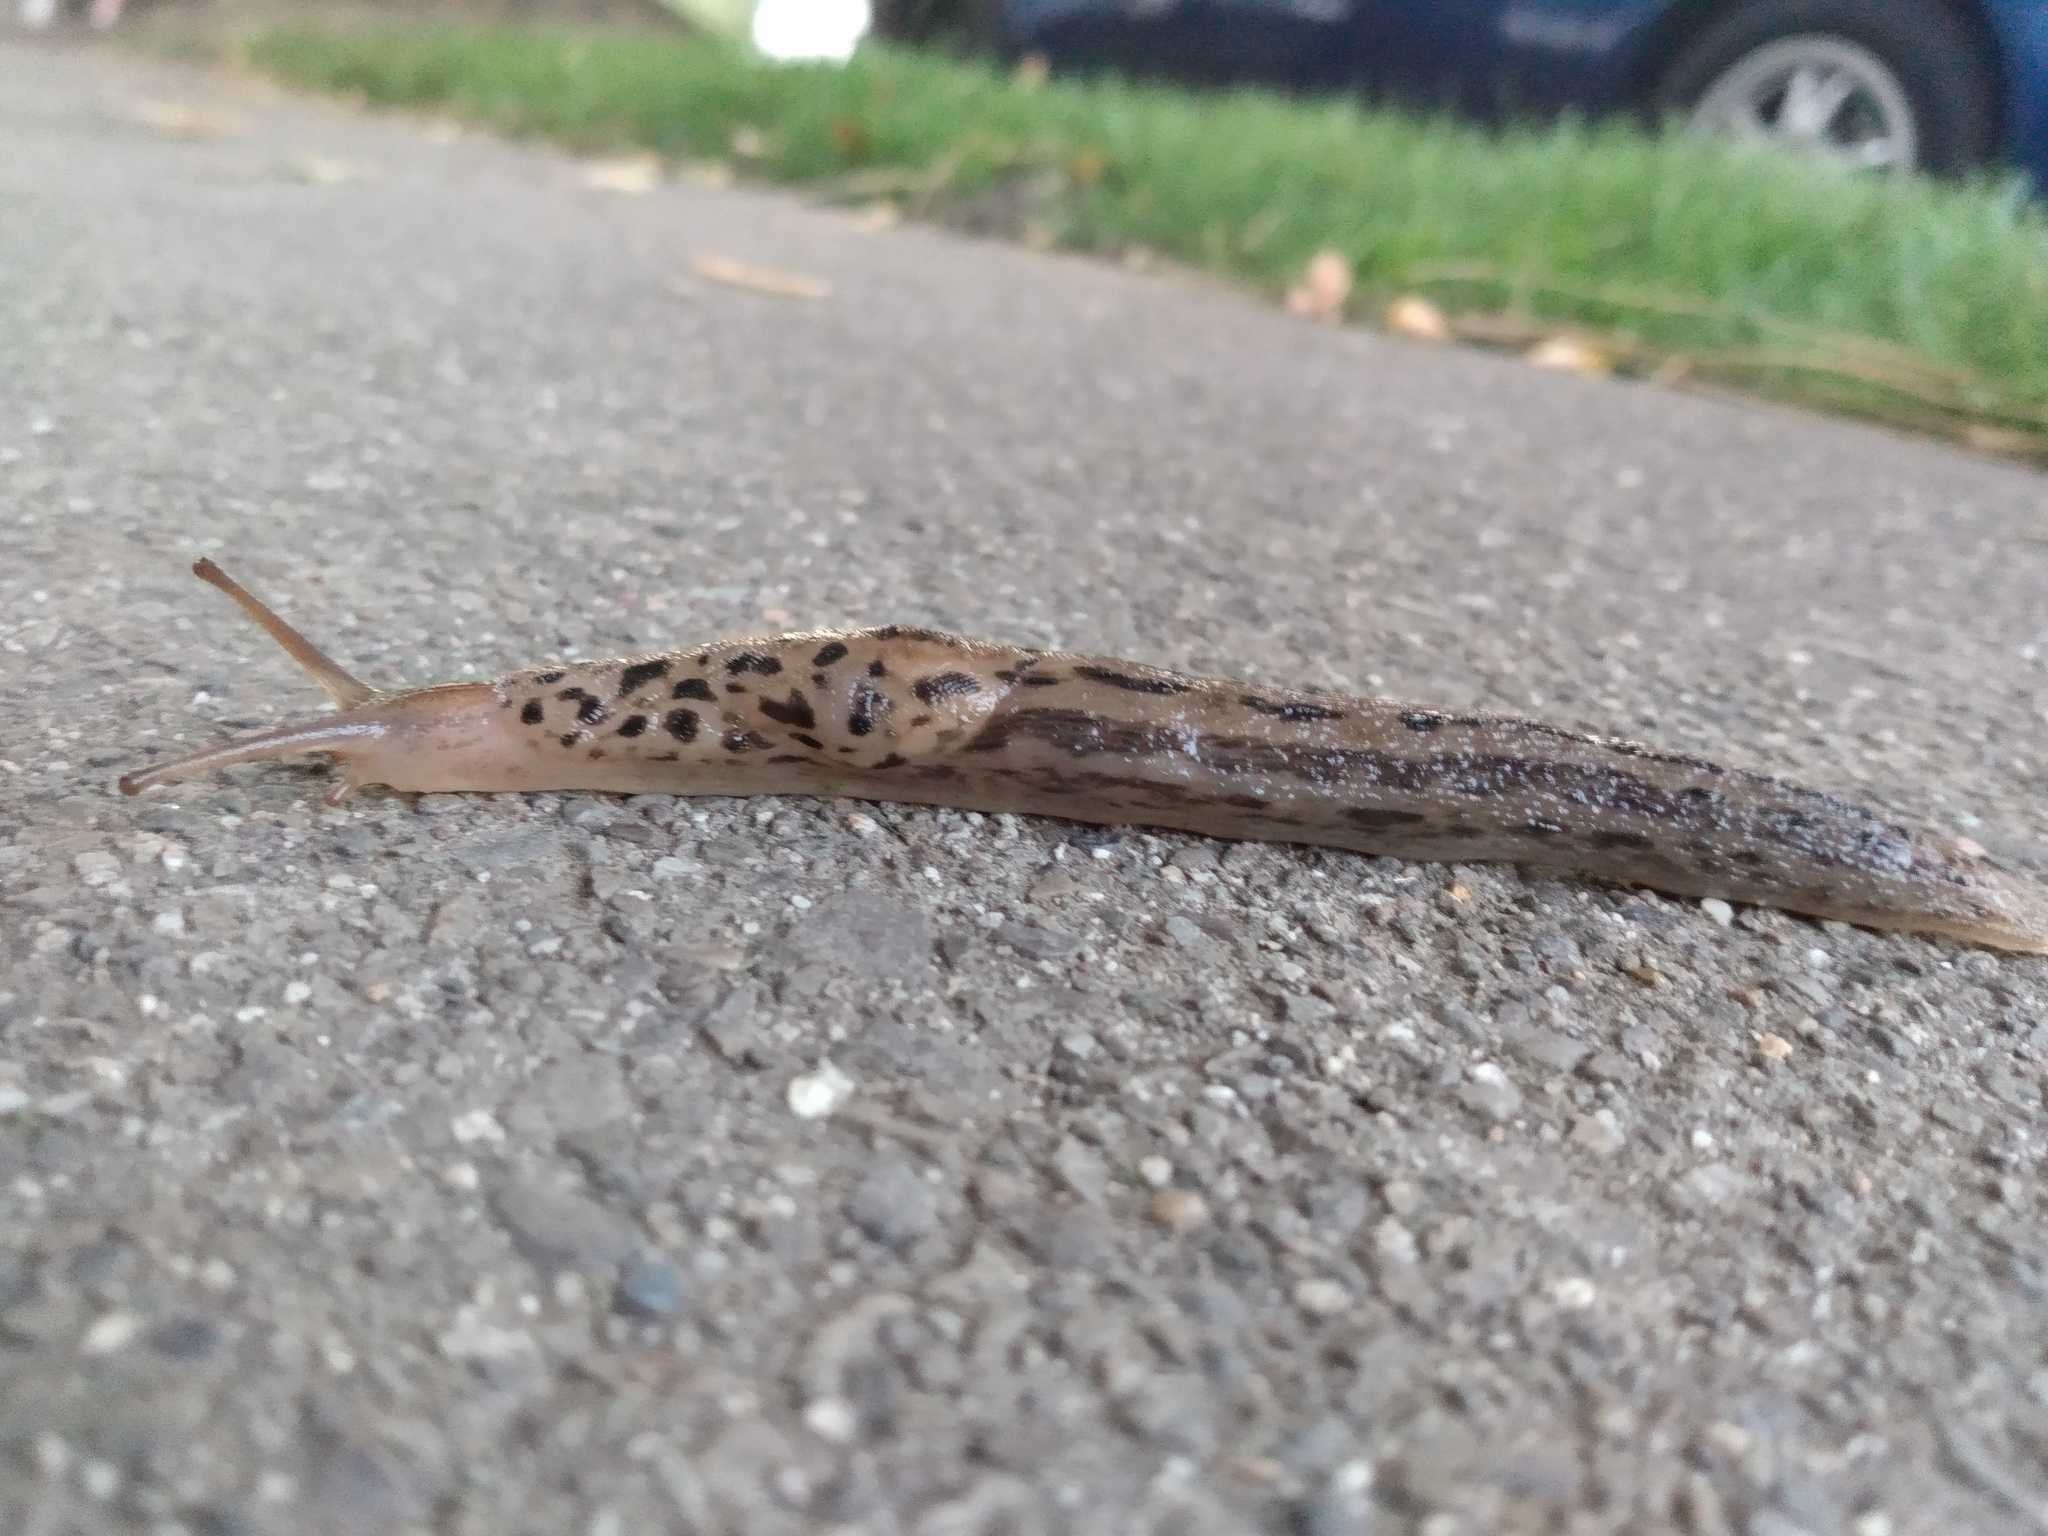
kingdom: Animalia
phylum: Mollusca
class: Gastropoda
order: Stylommatophora
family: Limacidae
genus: Limax
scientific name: Limax maximus
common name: Great grey slug
